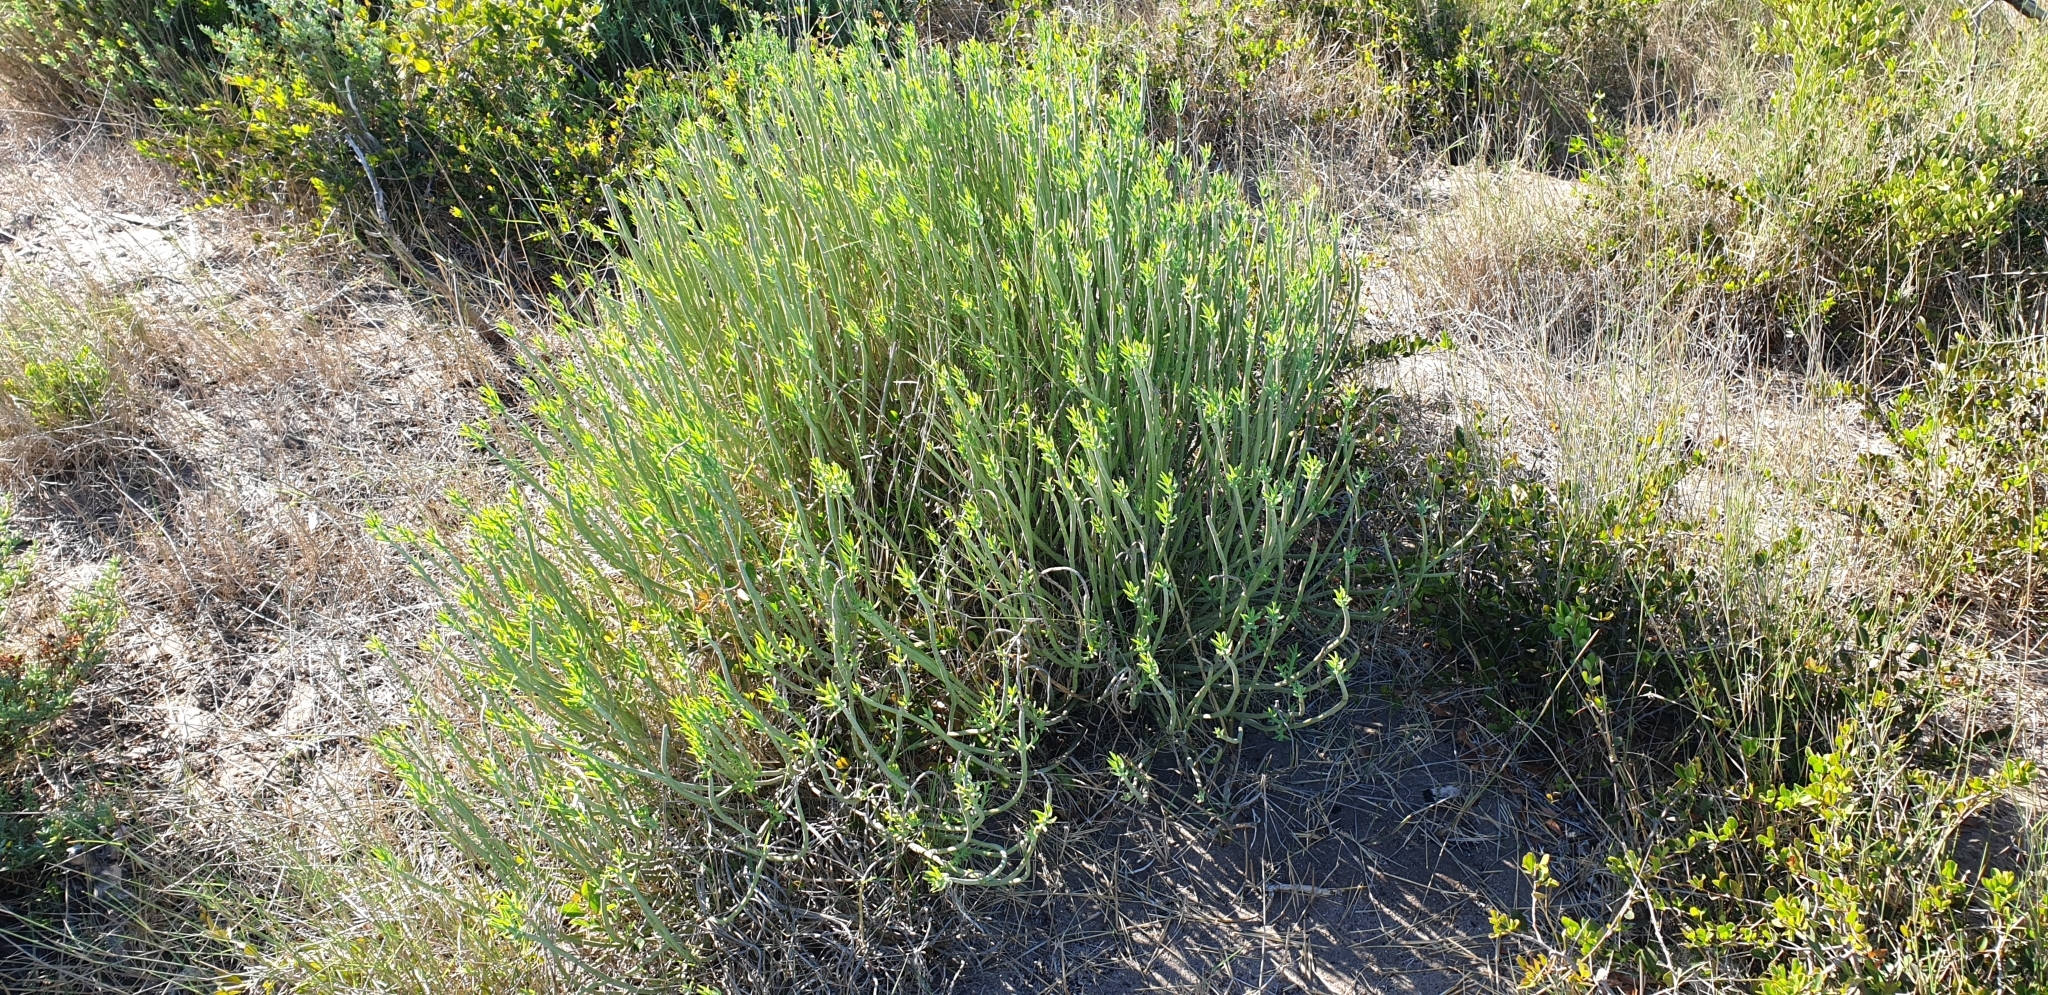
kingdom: Plantae
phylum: Tracheophyta
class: Magnoliopsida
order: Malpighiales
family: Euphorbiaceae
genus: Euphorbia
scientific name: Euphorbia mauritanica
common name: Jackal's-food
